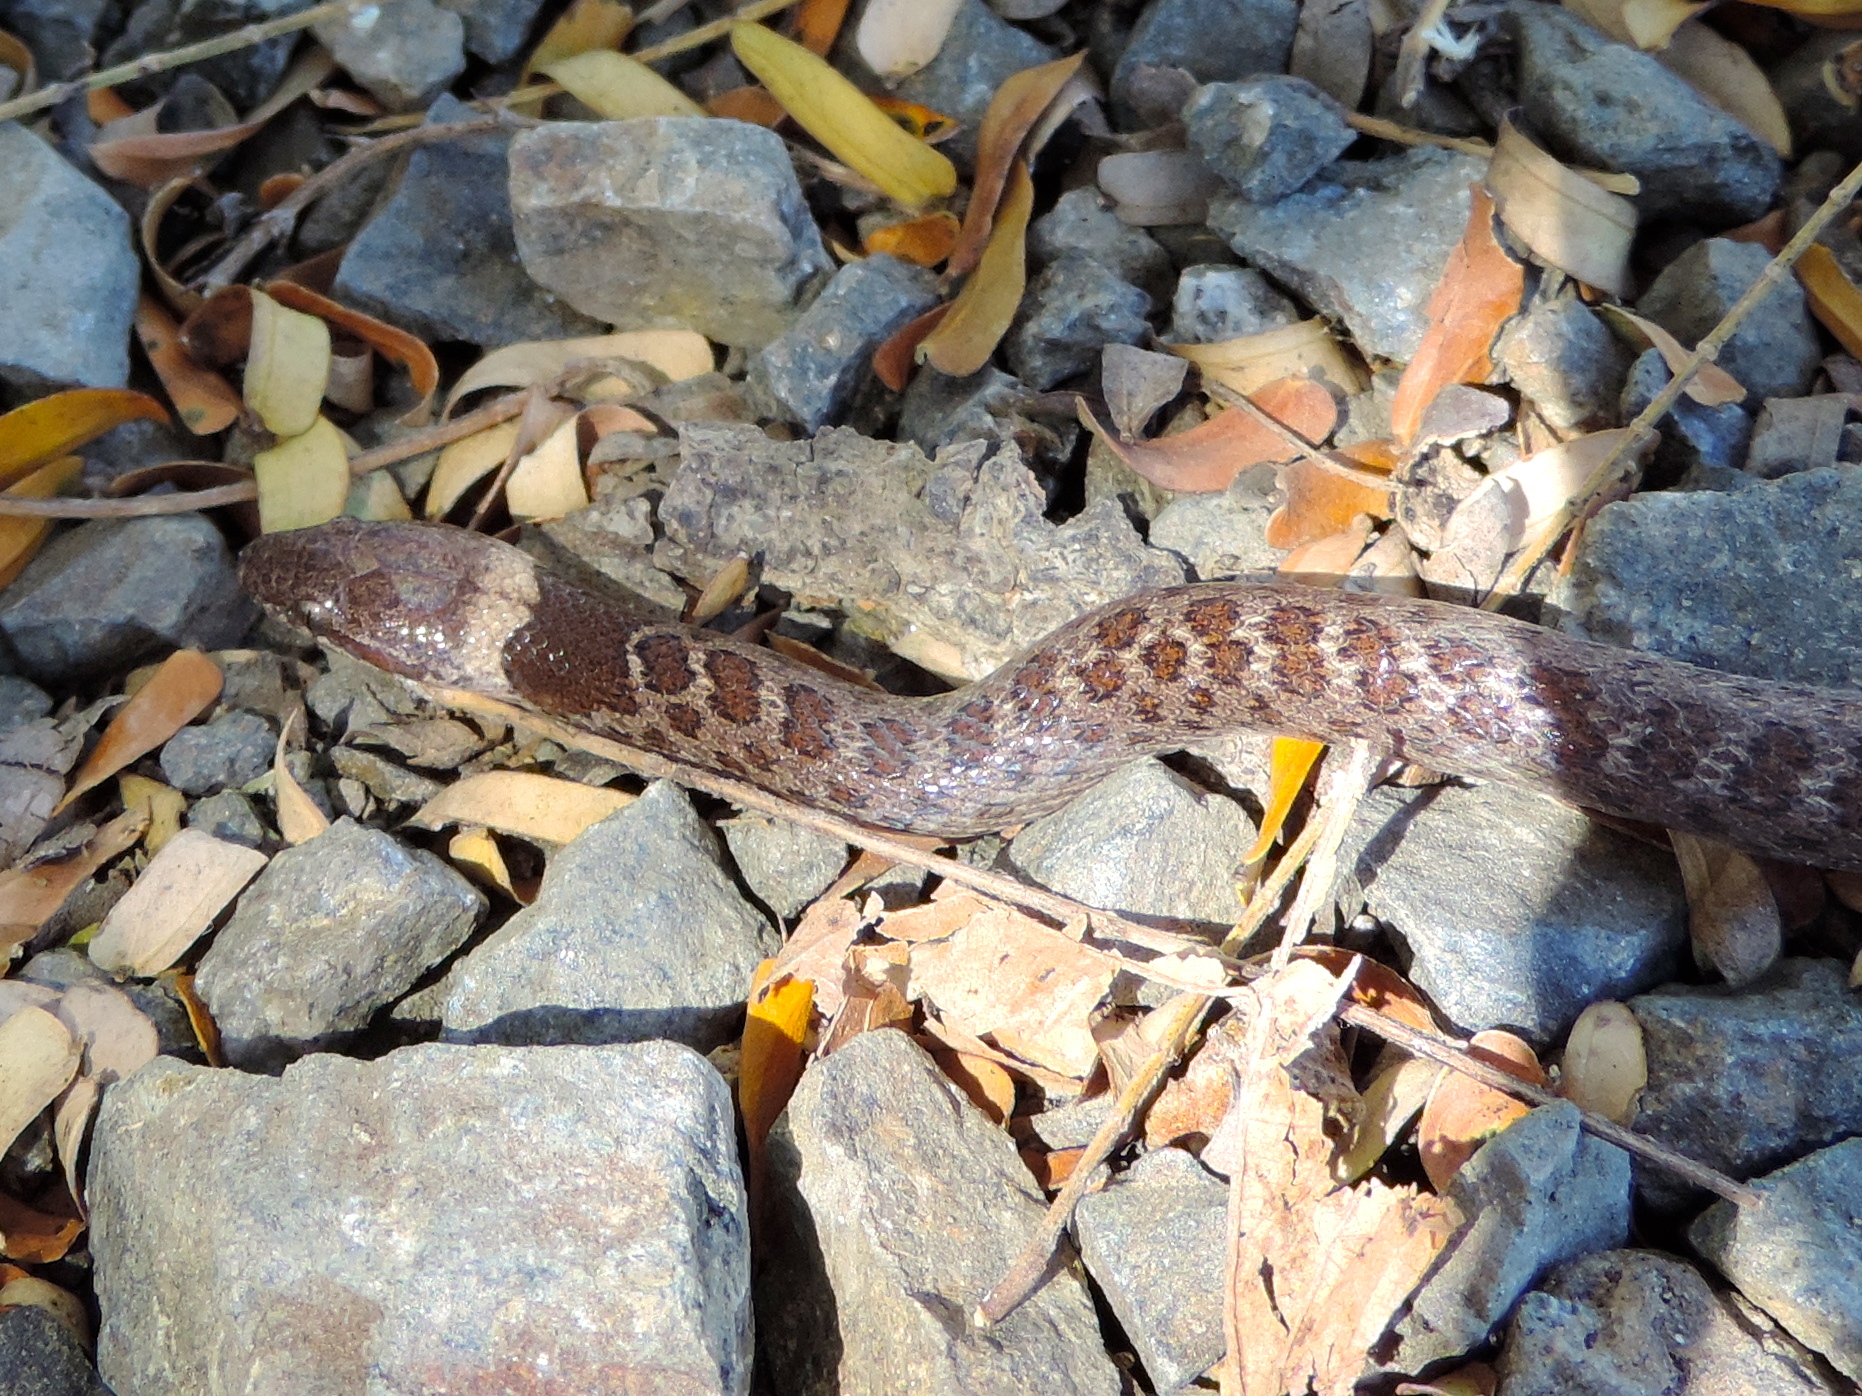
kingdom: Animalia
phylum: Chordata
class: Squamata
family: Colubridae
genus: Hypsiglena
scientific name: Hypsiglena torquata
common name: Night snake
